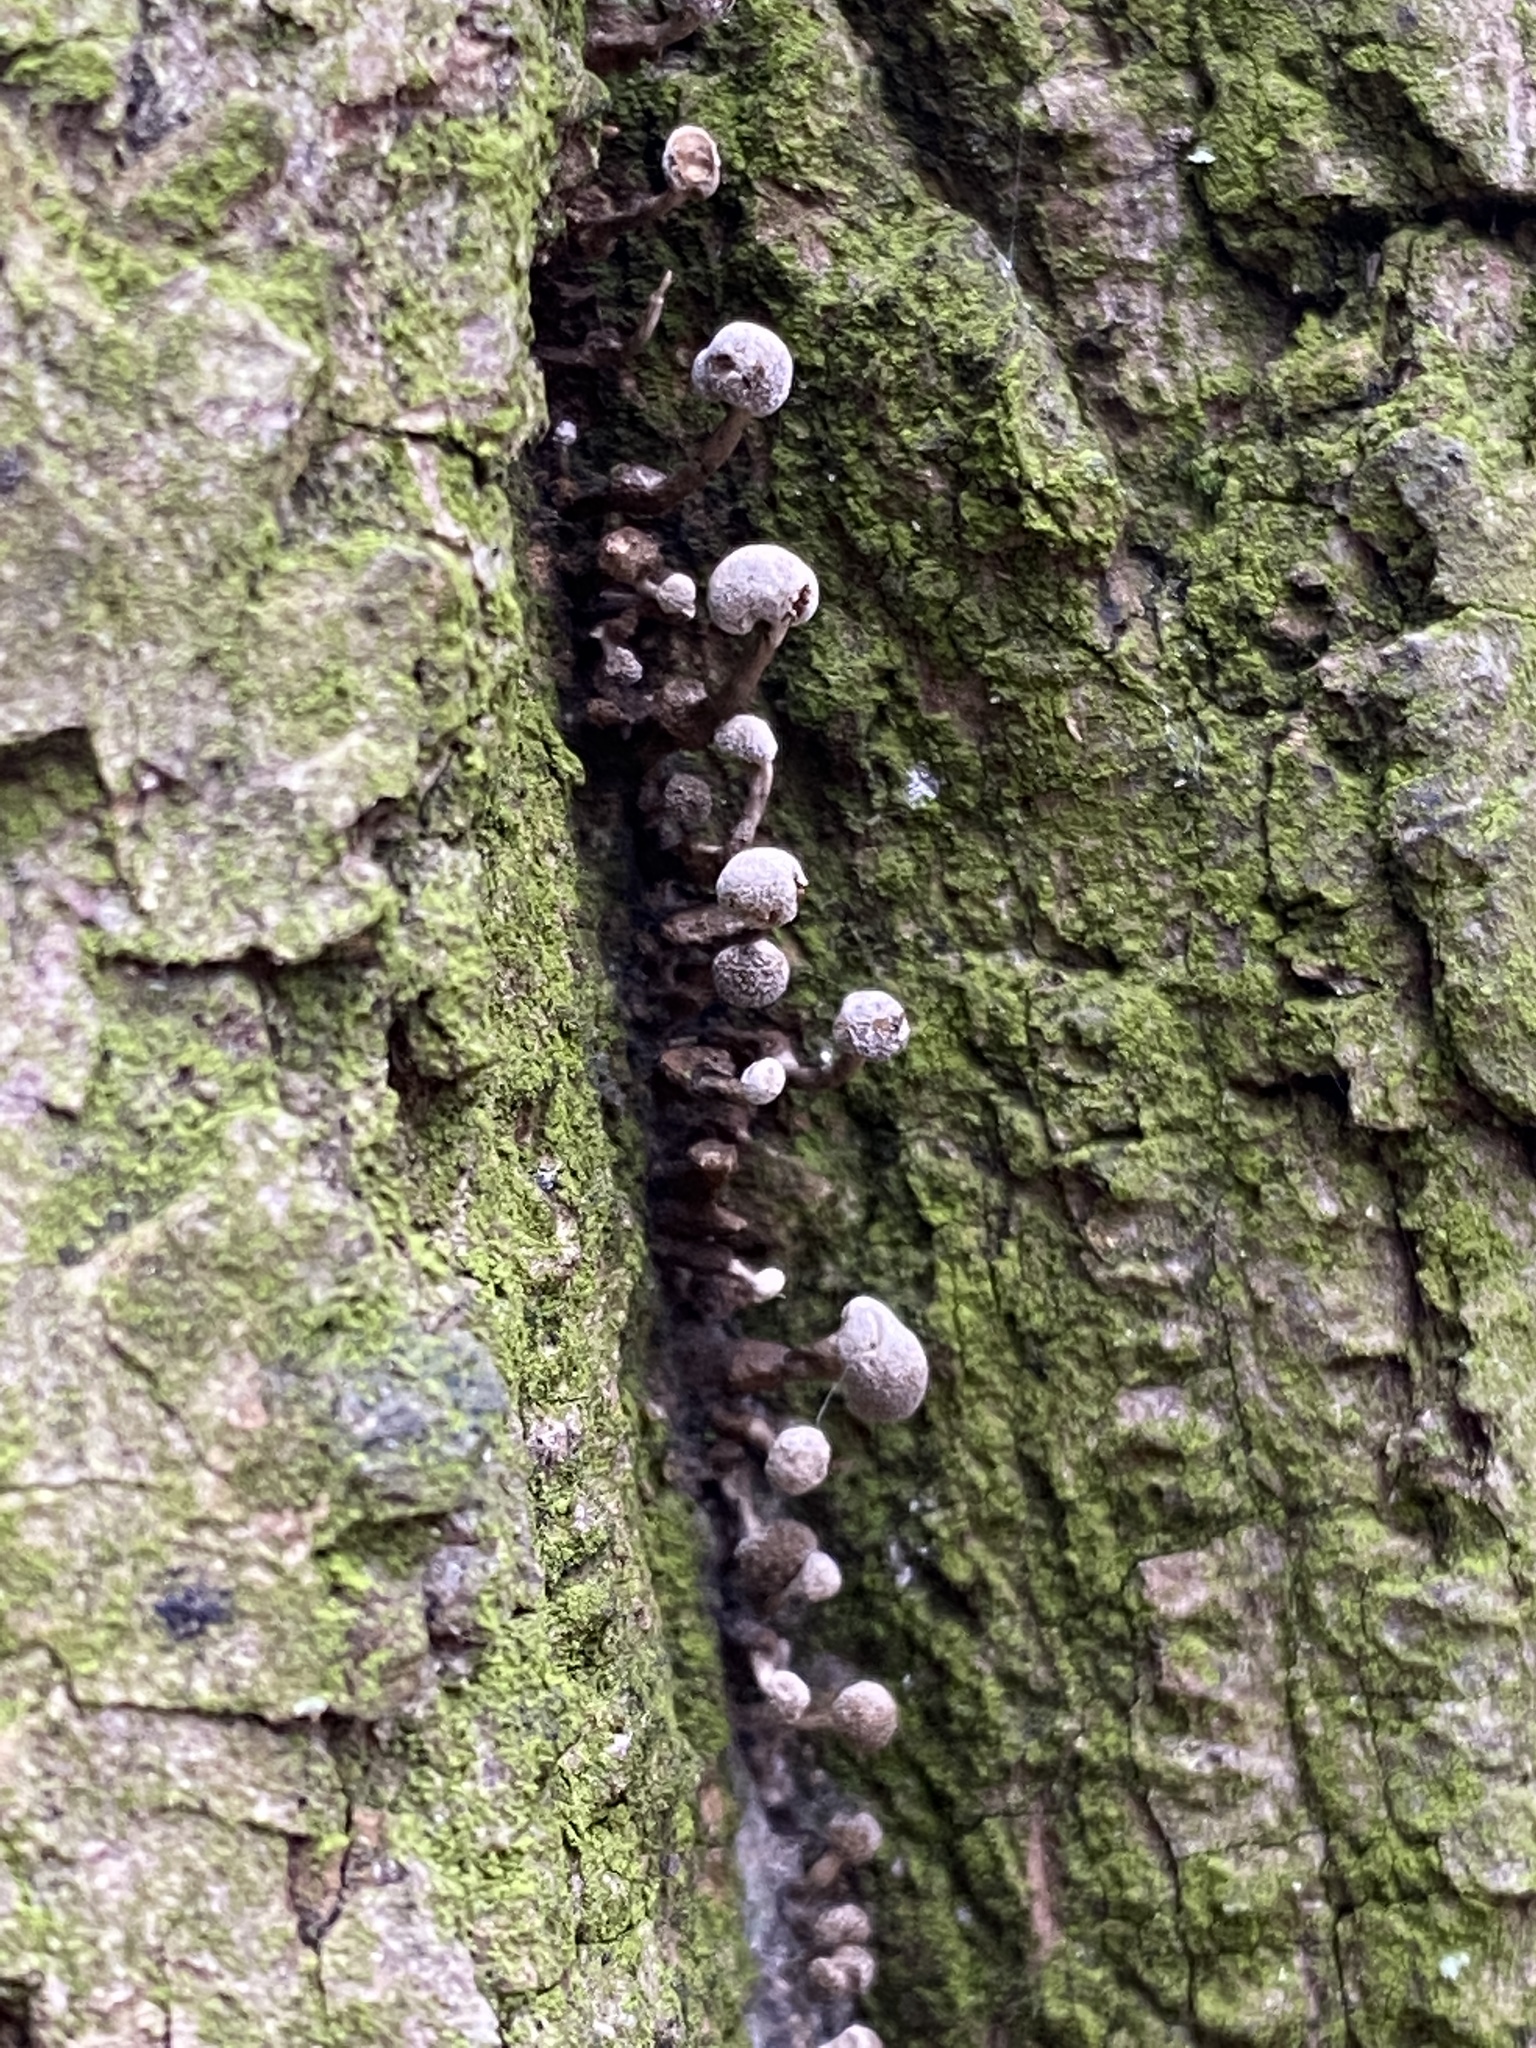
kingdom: Fungi
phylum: Basidiomycota
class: Atractiellomycetes
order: Atractiellales
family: Phleogenaceae
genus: Phleogena
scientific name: Phleogena faginea
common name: Fenugreek stalkball
